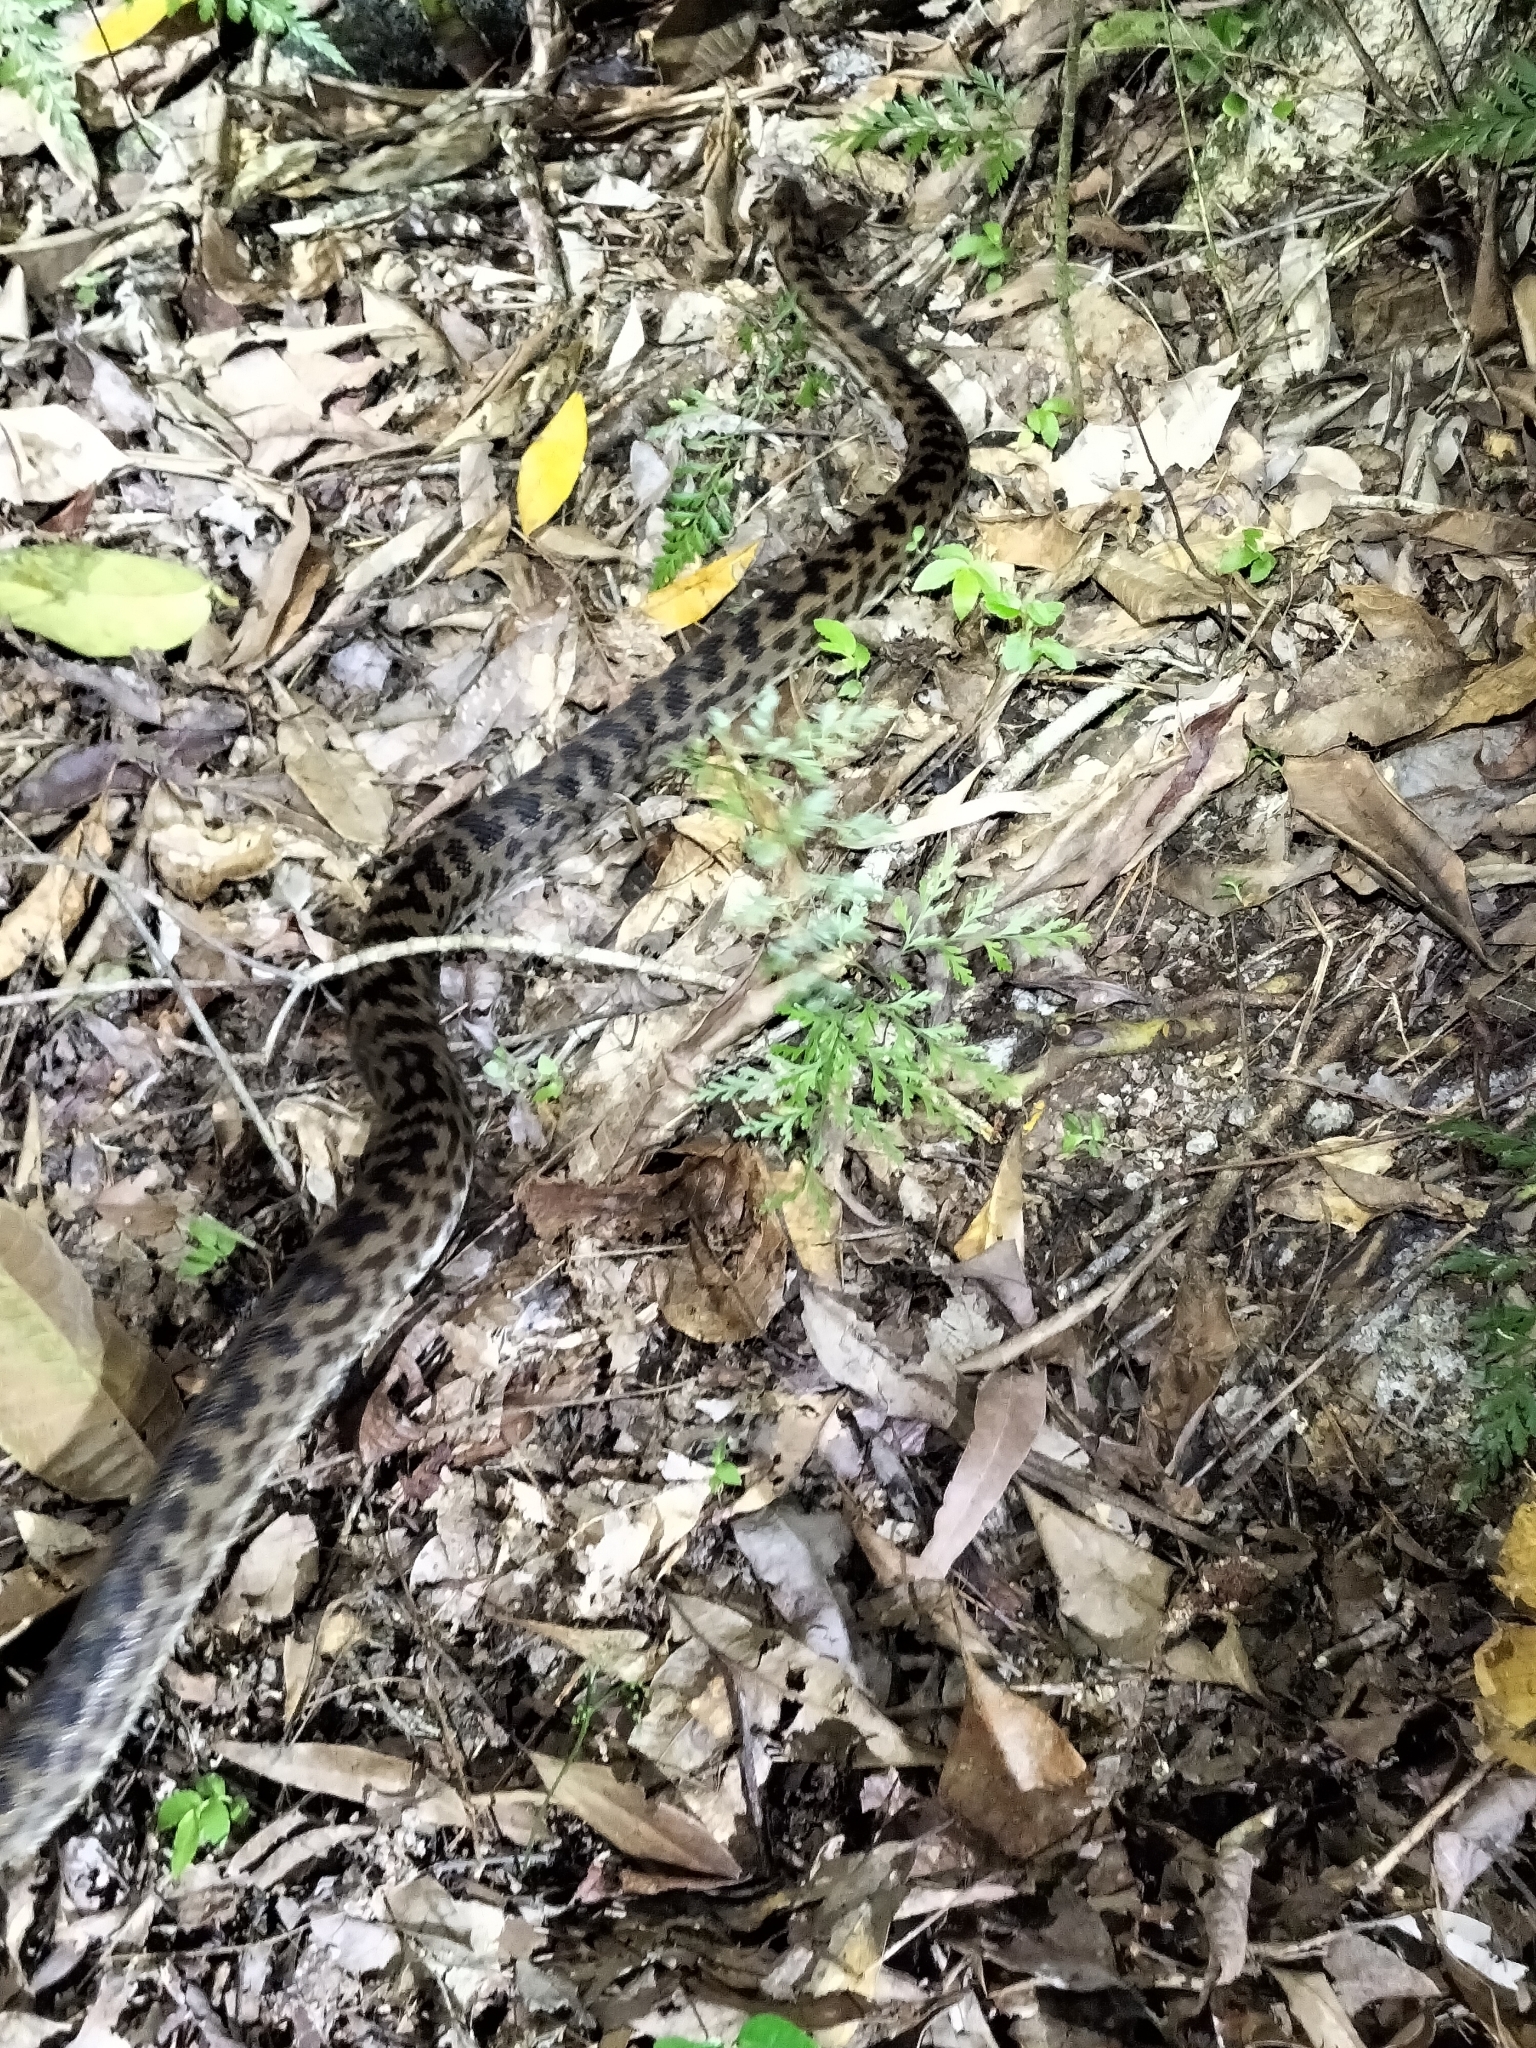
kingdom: Animalia
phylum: Chordata
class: Squamata
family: Pythonidae
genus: Antaresia
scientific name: Antaresia maculosa
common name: Eastern childrens python
